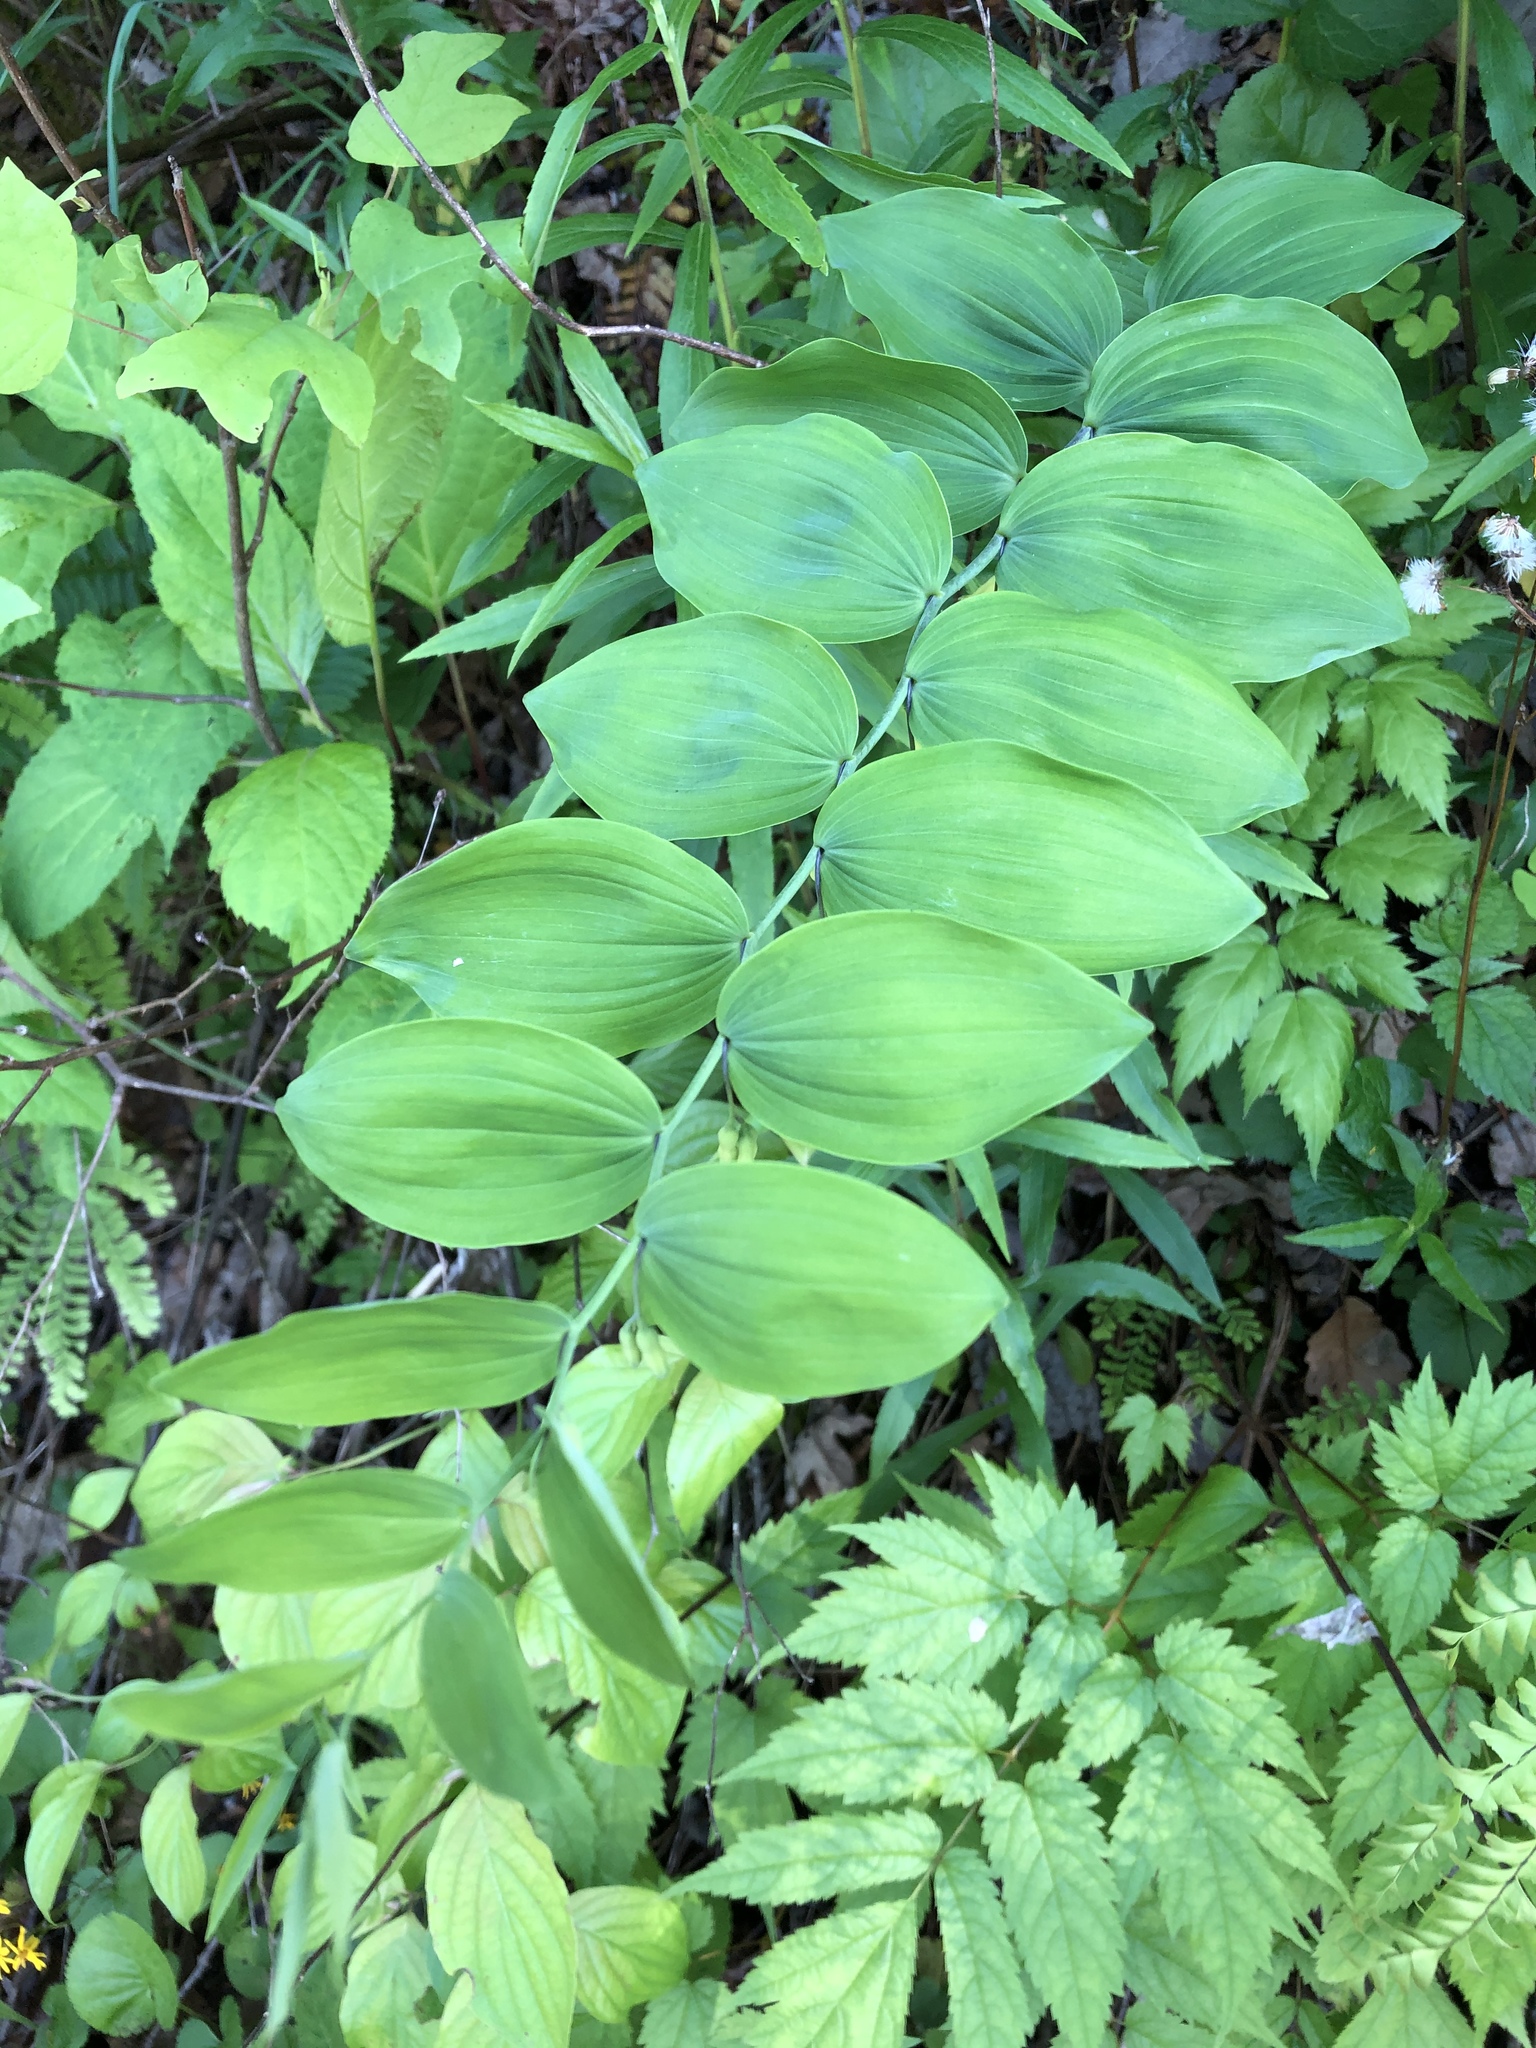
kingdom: Plantae
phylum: Tracheophyta
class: Liliopsida
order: Asparagales
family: Asparagaceae
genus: Polygonatum
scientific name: Polygonatum biflorum
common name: American solomon's-seal
